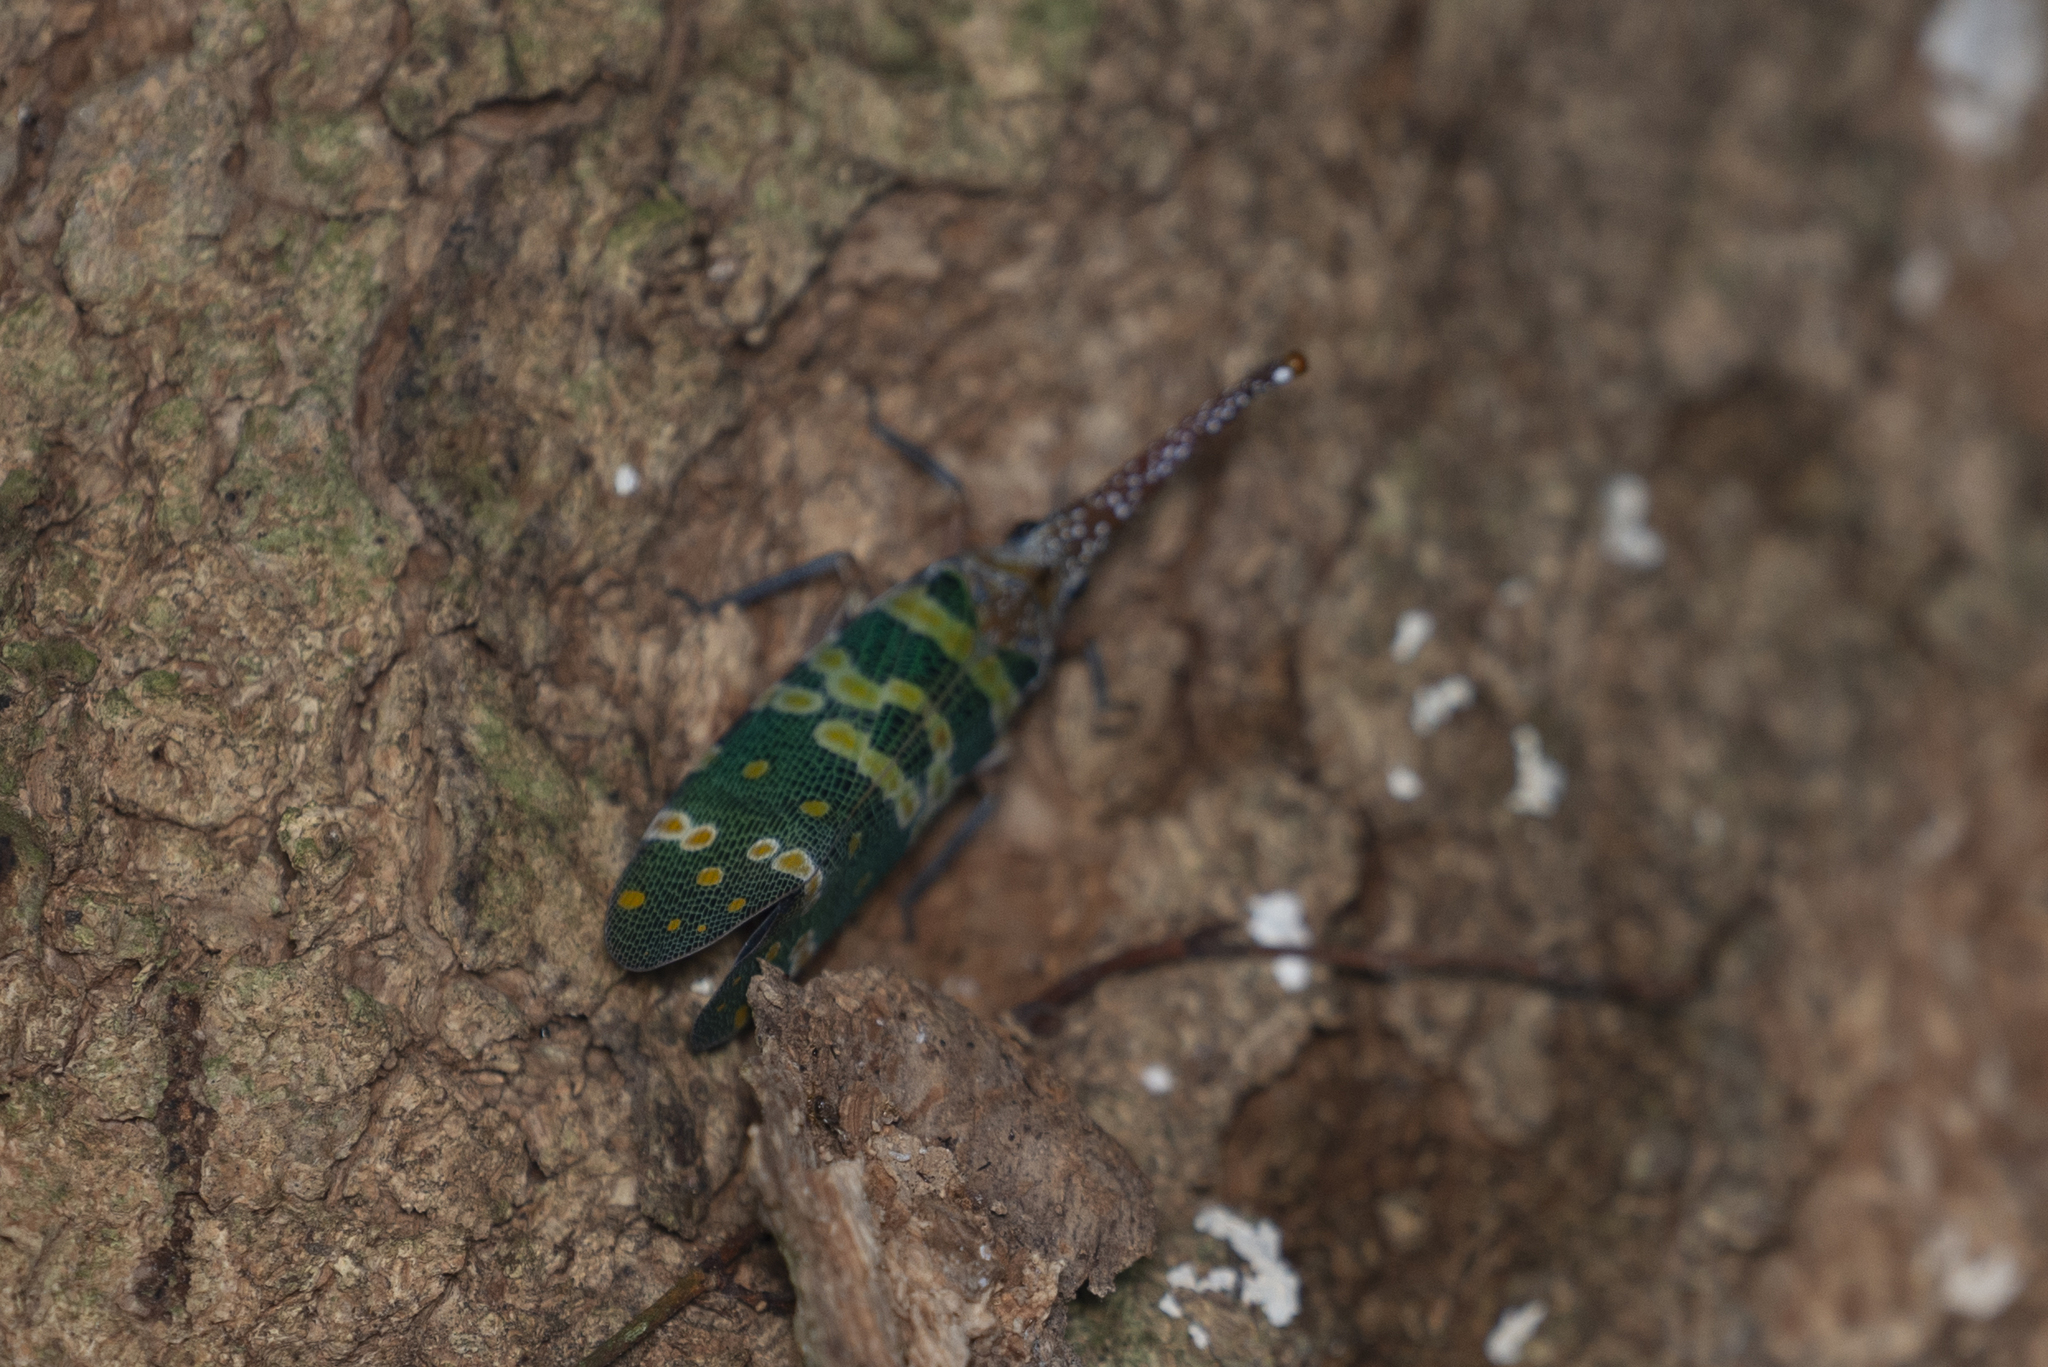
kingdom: Animalia
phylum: Arthropoda
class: Insecta
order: Hemiptera
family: Fulgoridae
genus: Pyrops
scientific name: Pyrops candelaria
